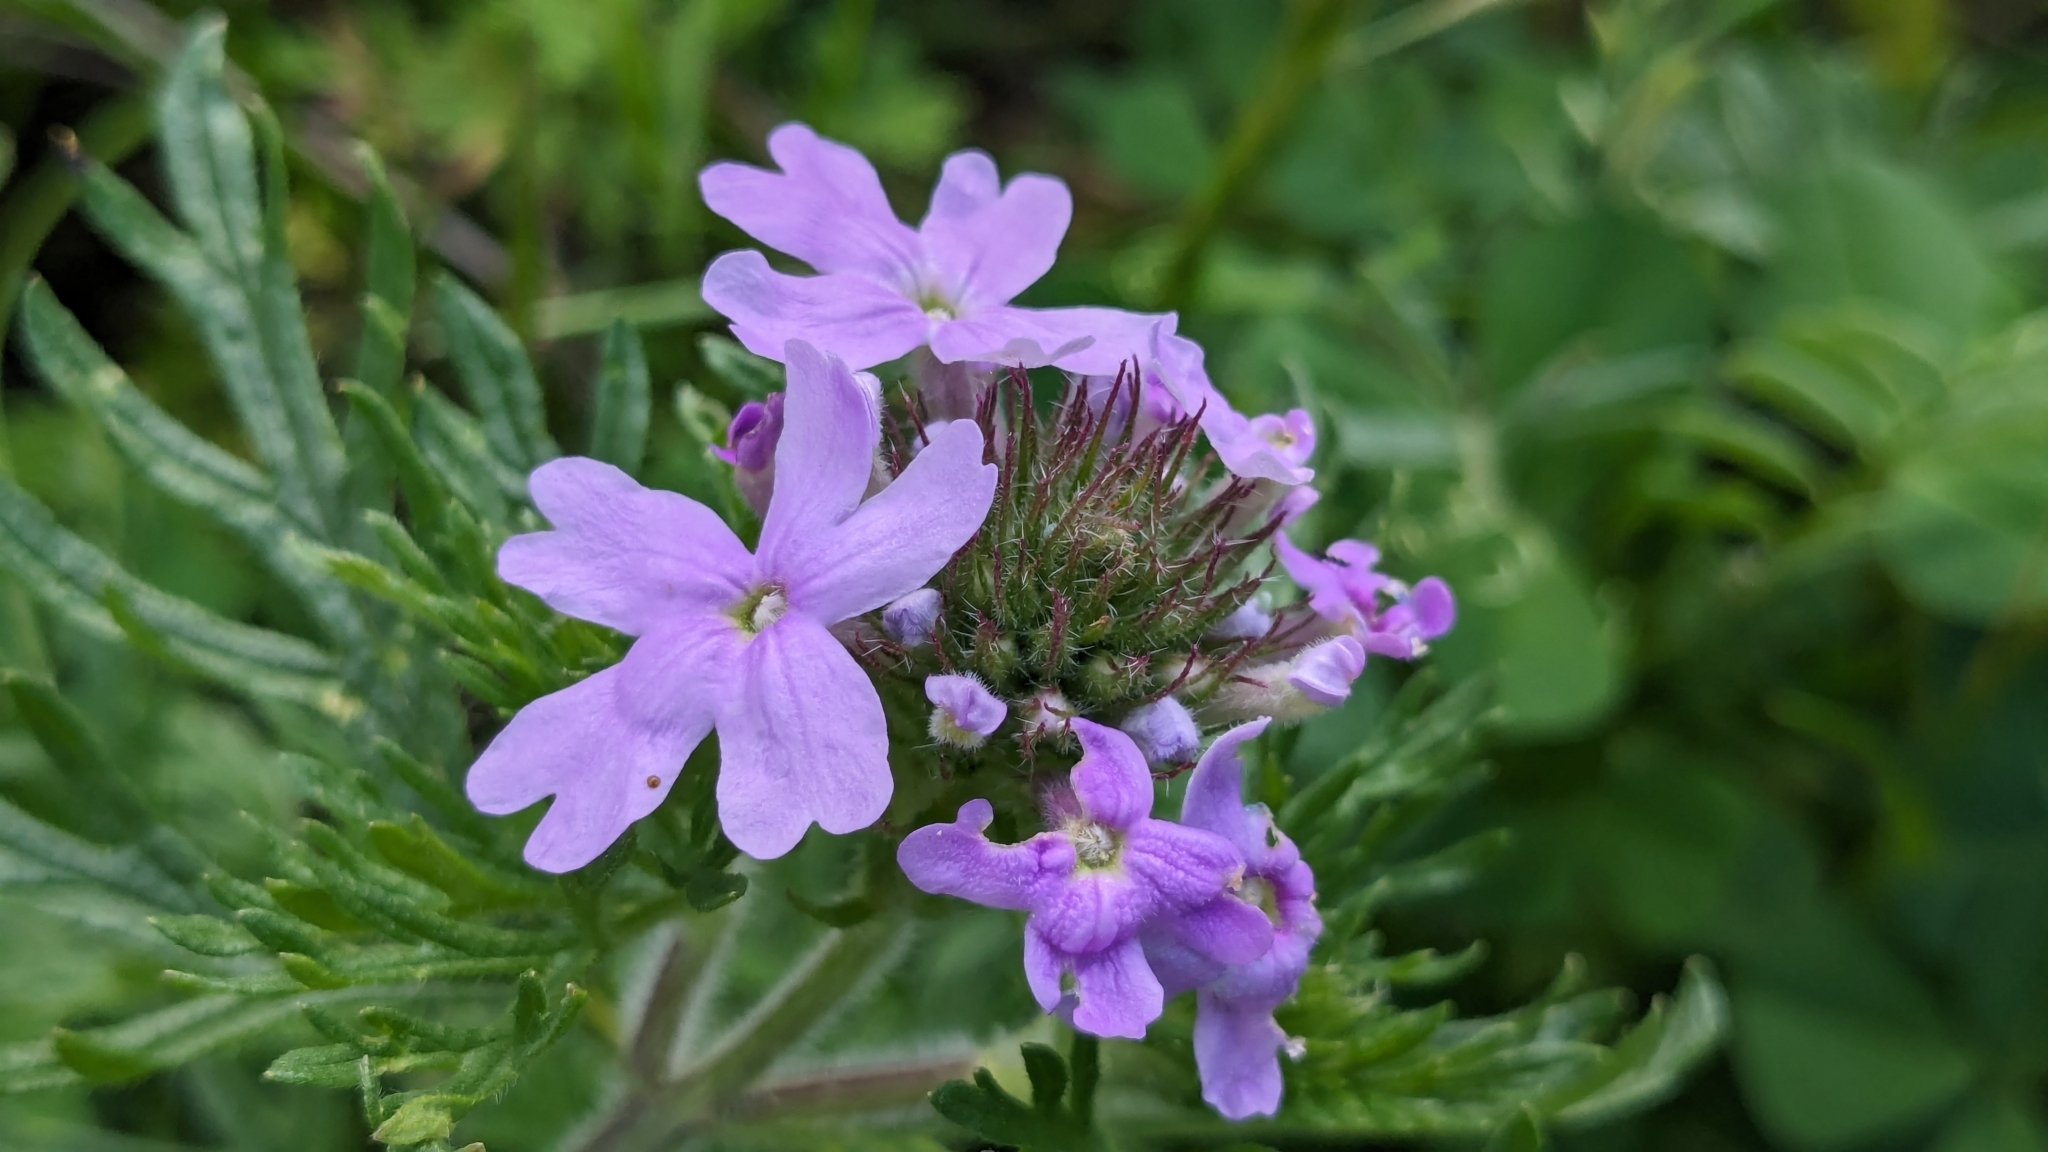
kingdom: Plantae
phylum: Tracheophyta
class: Magnoliopsida
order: Lamiales
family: Verbenaceae
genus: Verbena
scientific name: Verbena bipinnatifida
